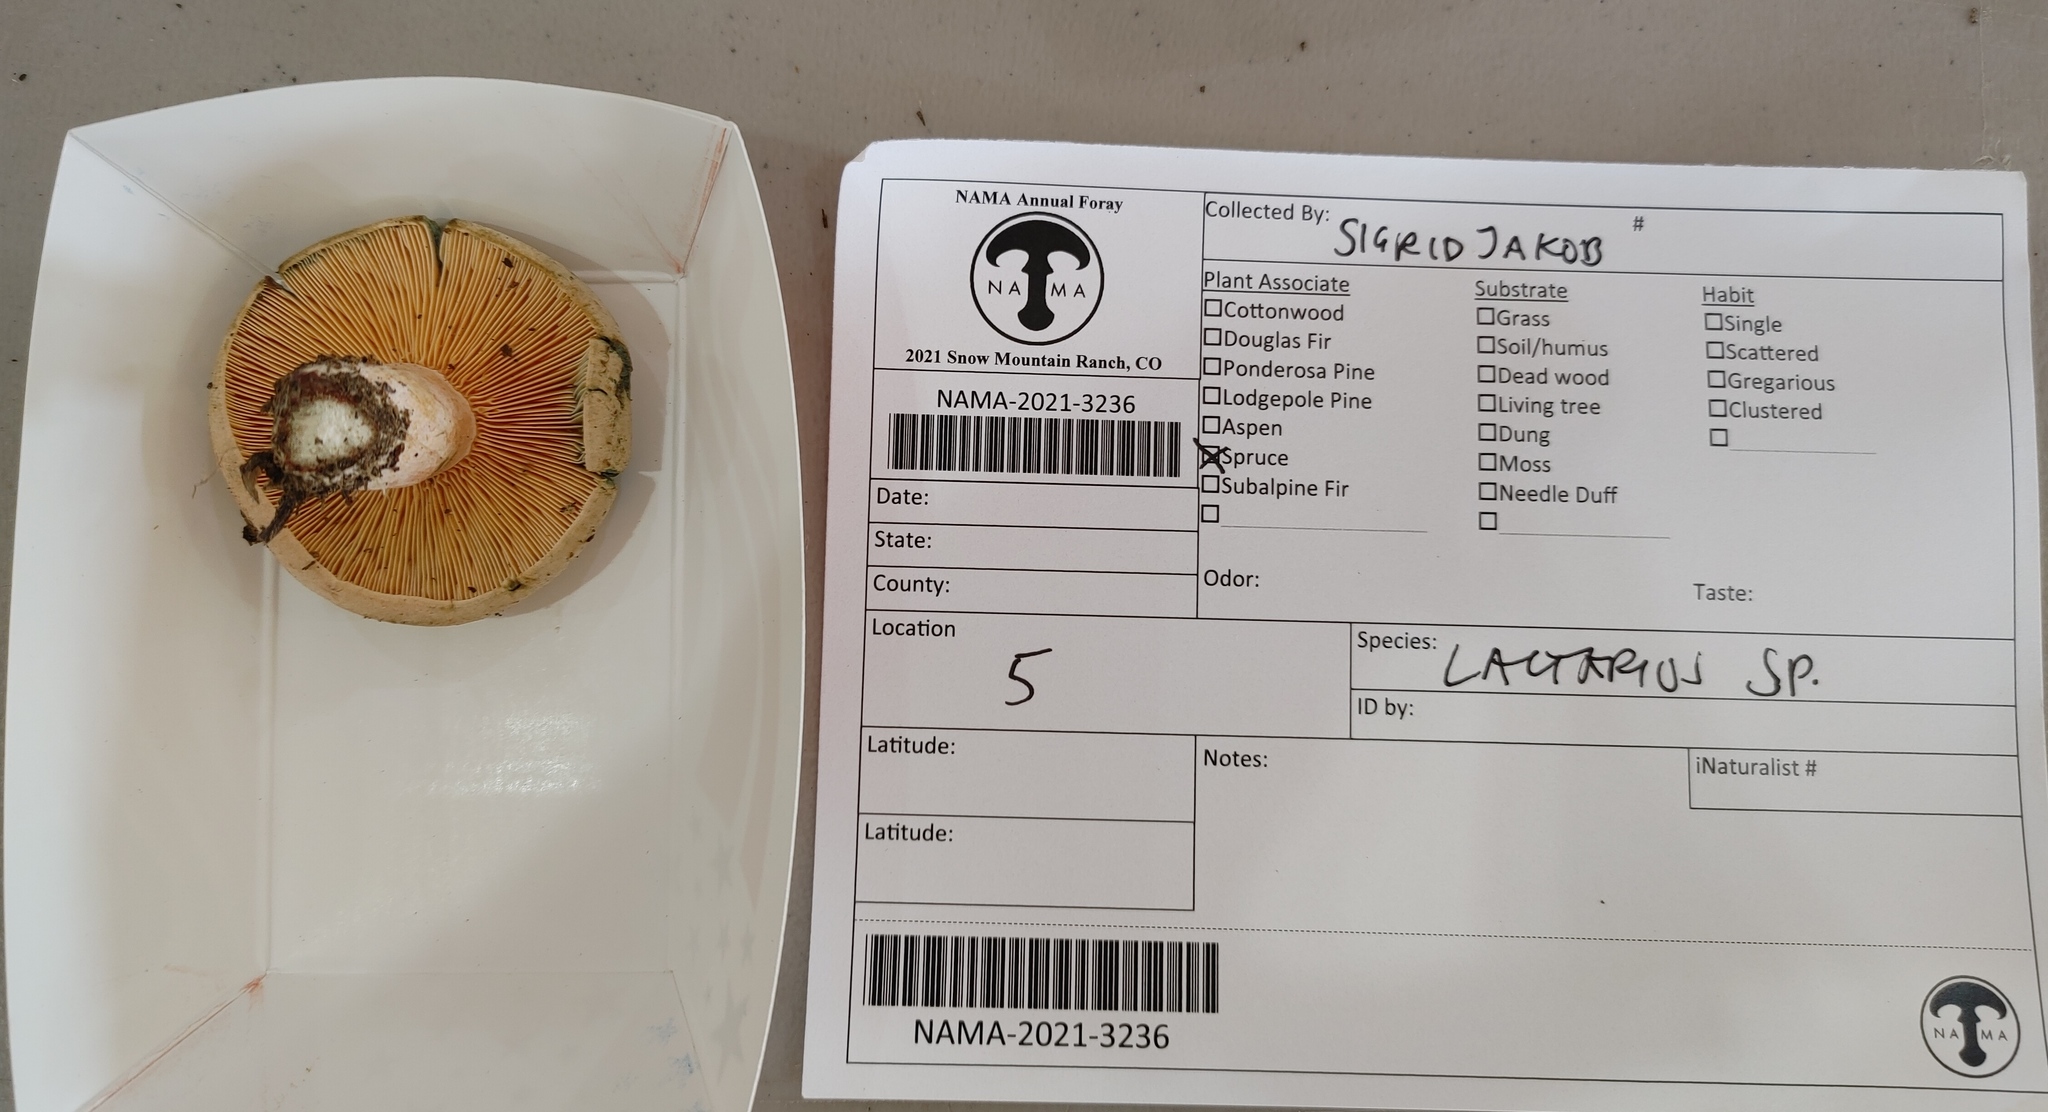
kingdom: Fungi
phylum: Basidiomycota
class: Agaricomycetes
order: Russulales
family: Russulaceae
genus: Lactarius
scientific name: Lactarius deliciosus
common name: Saffron milk-cap
